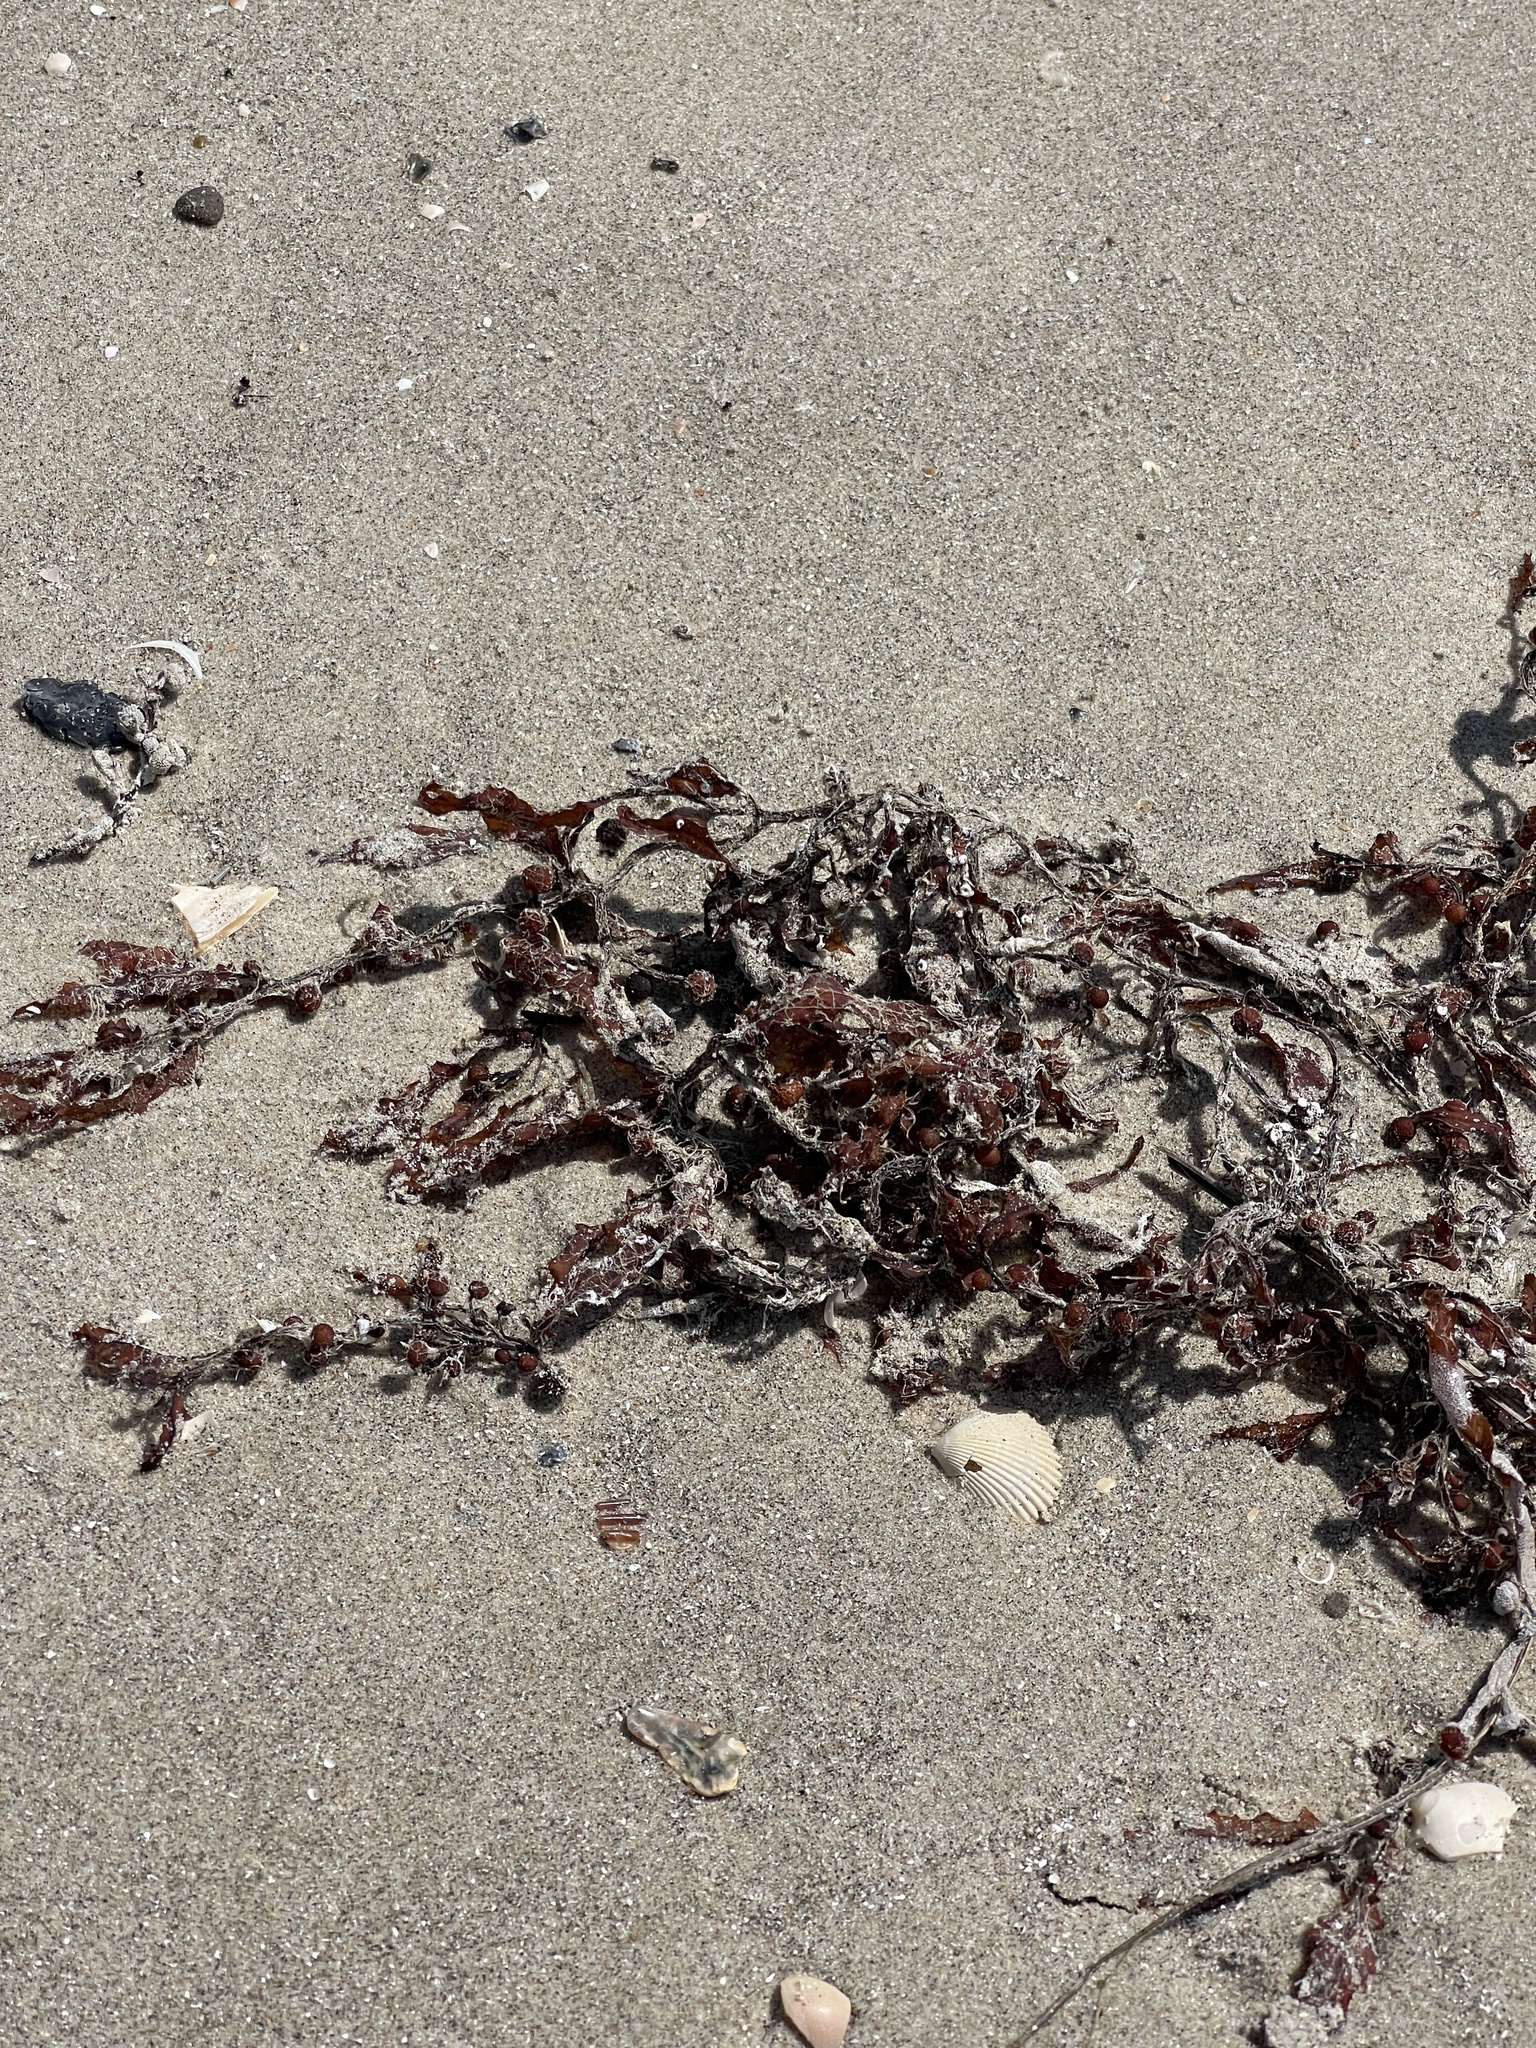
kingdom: Chromista
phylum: Ochrophyta
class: Phaeophyceae
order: Fucales
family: Sargassaceae
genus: Sargassum
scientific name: Sargassum fluitans
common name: Sargassum seaweed
